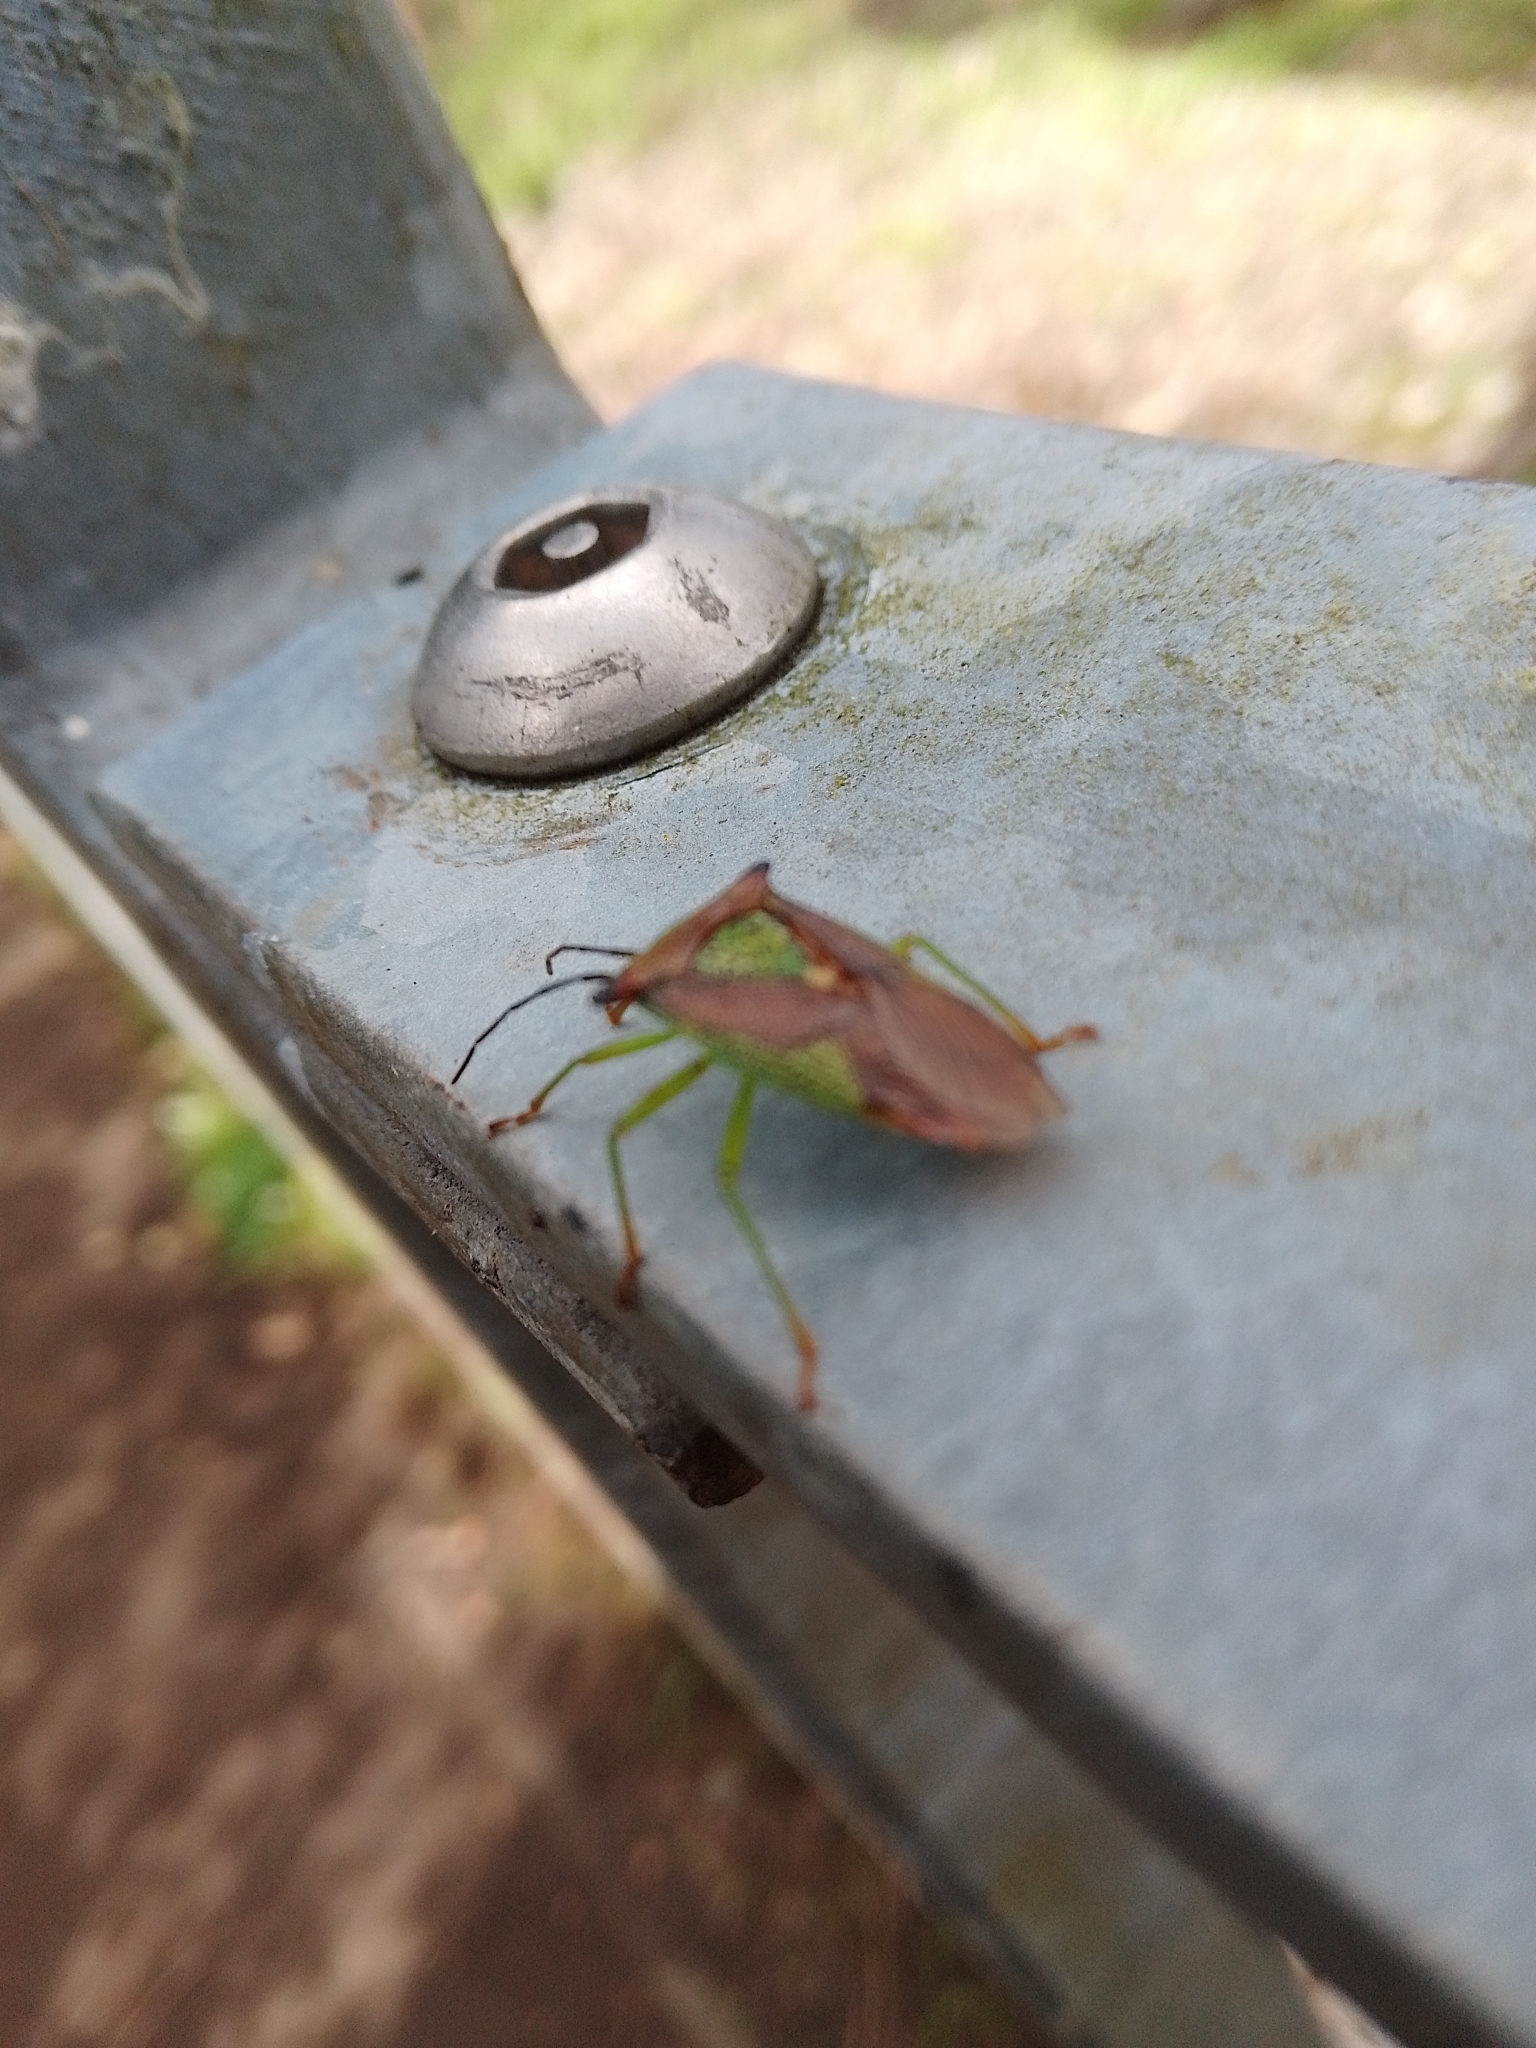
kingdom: Animalia
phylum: Arthropoda
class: Insecta
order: Hemiptera
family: Acanthosomatidae
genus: Acanthosoma
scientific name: Acanthosoma haemorrhoidale
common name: Hawthorn shieldbug
